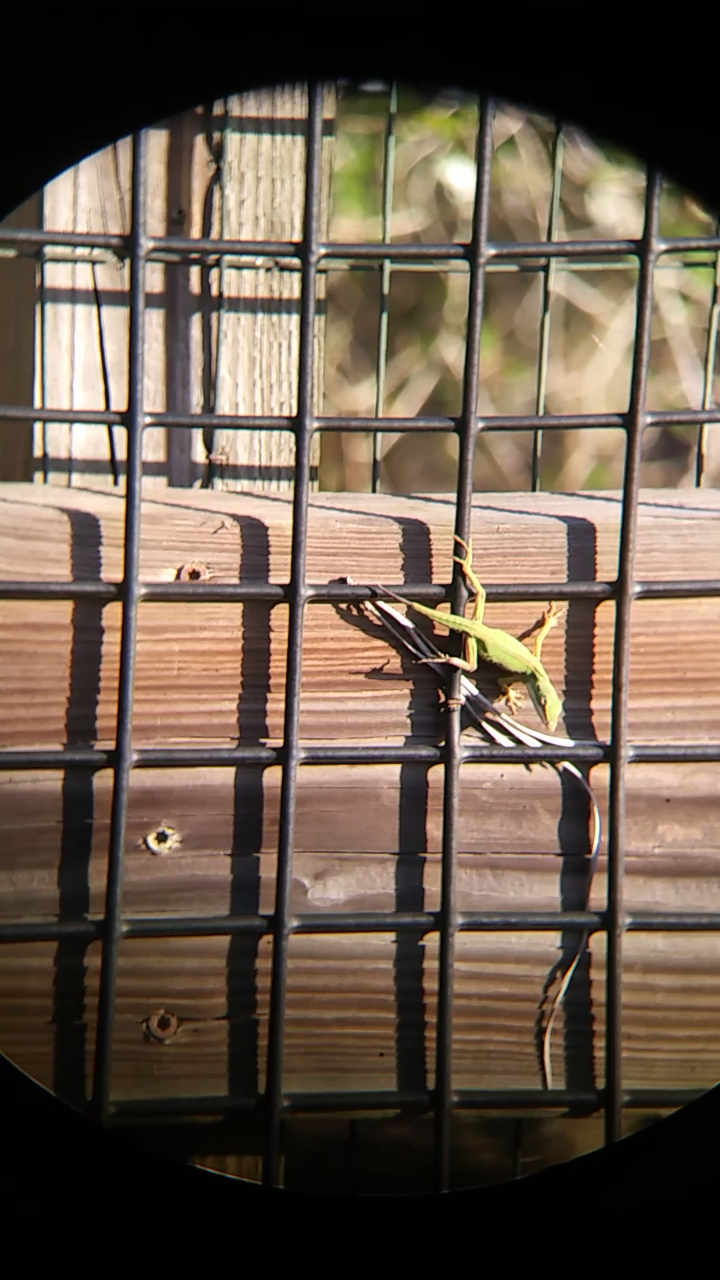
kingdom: Animalia
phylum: Chordata
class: Squamata
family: Dactyloidae
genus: Anolis
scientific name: Anolis carolinensis
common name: Green anole
